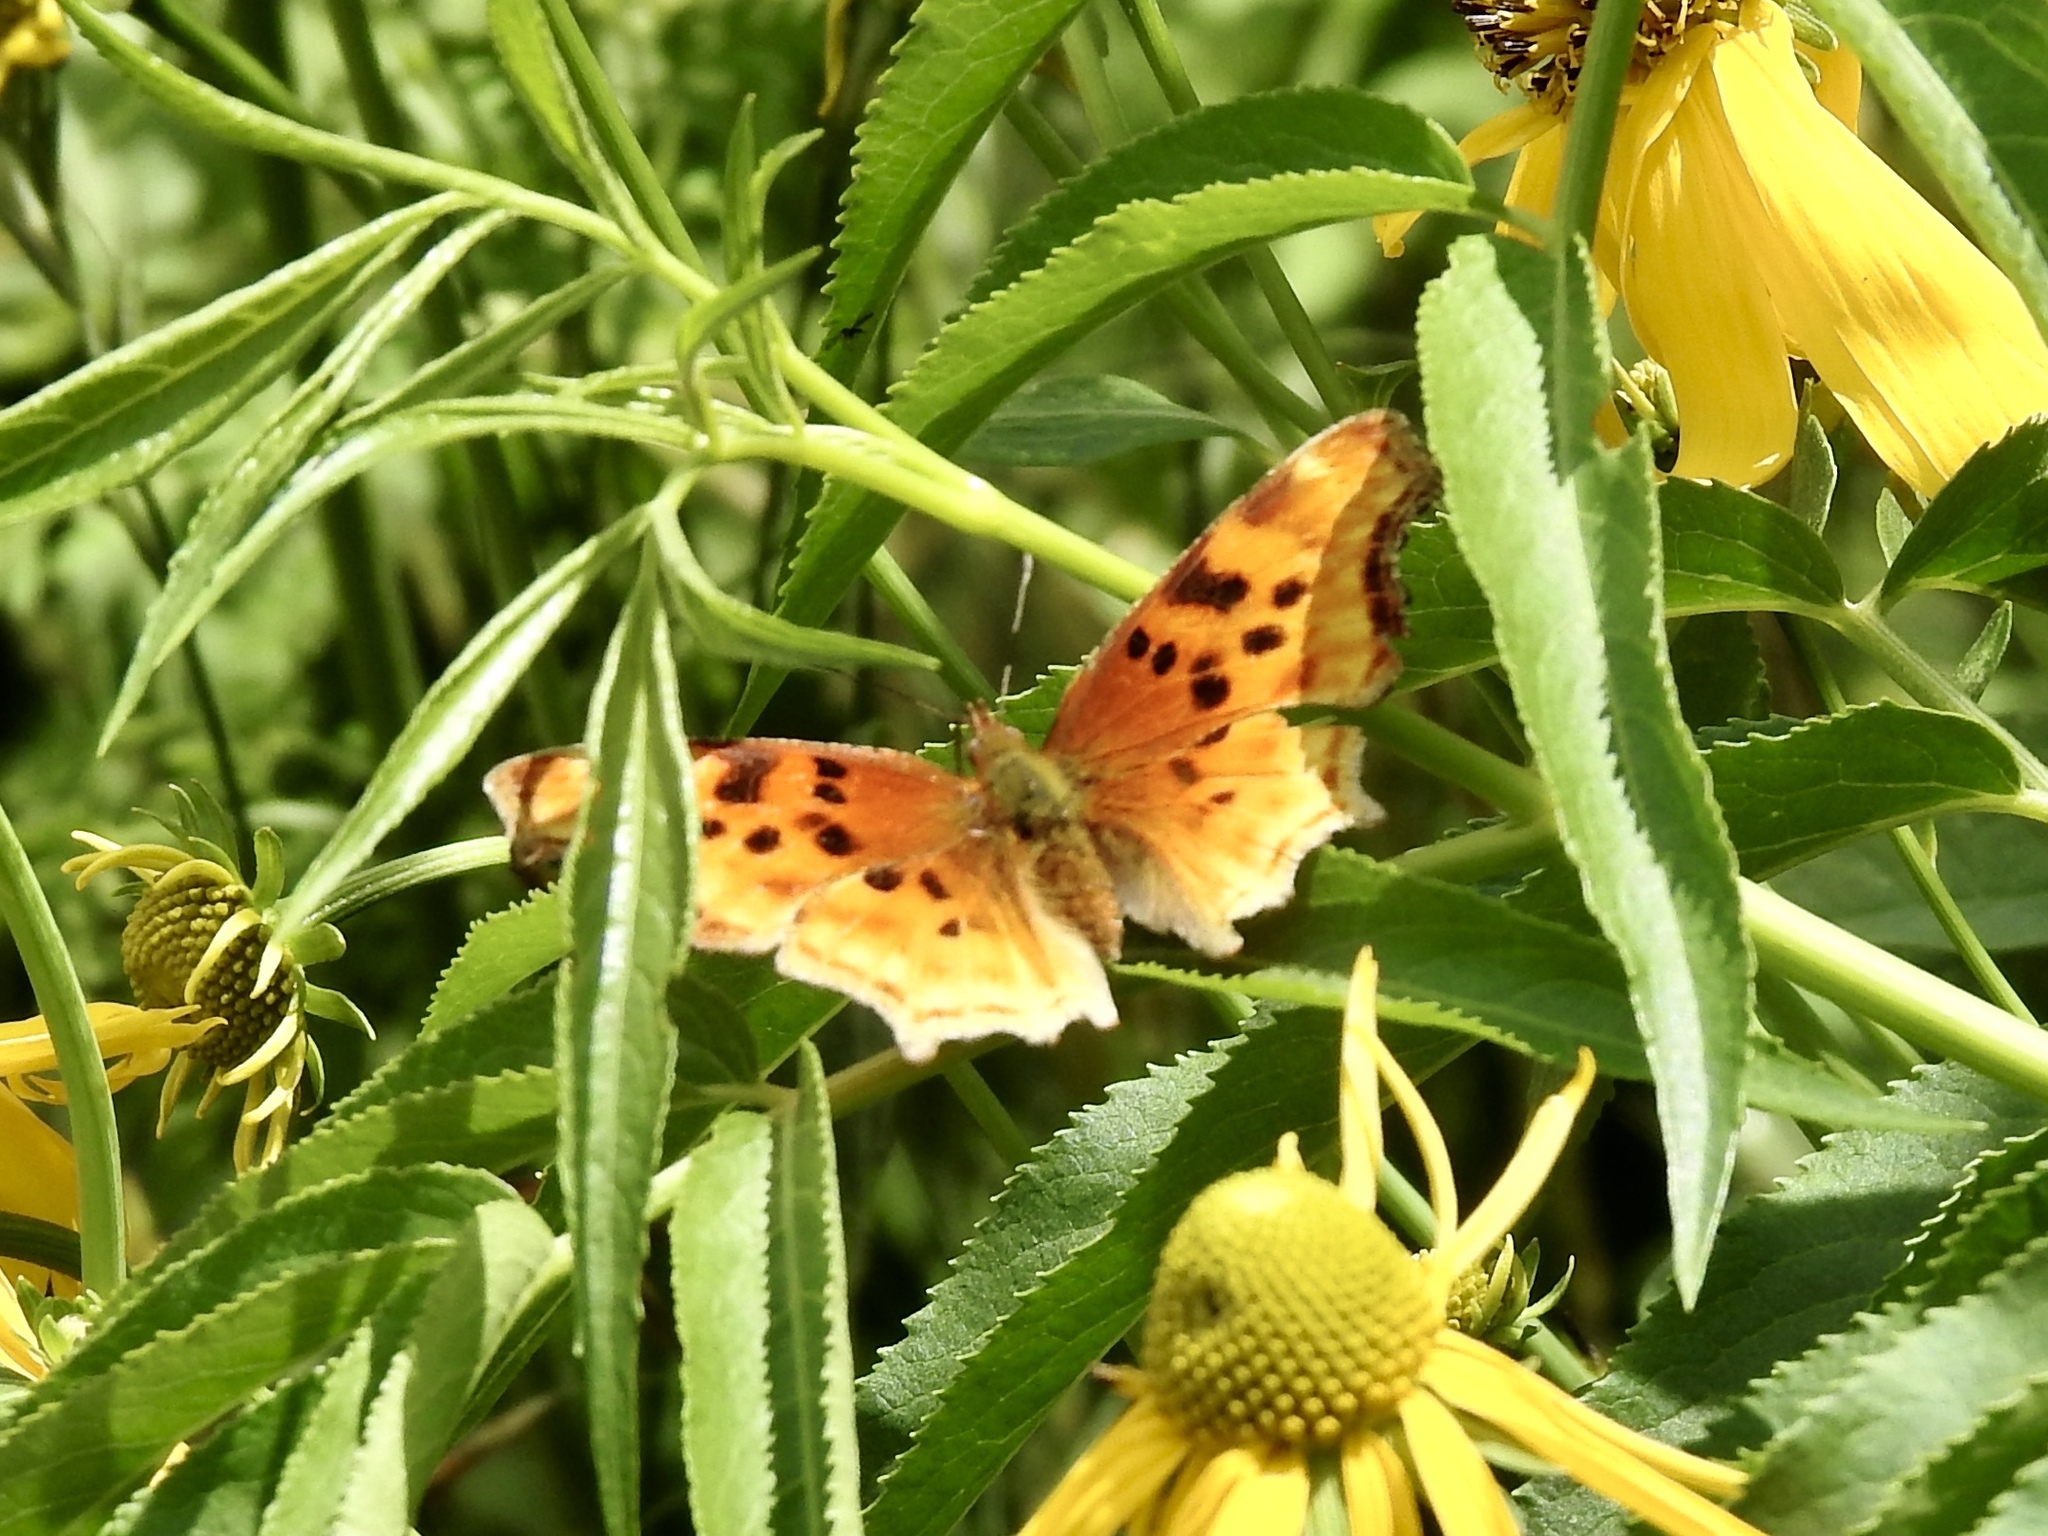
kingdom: Animalia
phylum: Arthropoda
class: Insecta
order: Lepidoptera
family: Nymphalidae
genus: Polygonia
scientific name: Polygonia satyrus
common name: Satyr angle wing
